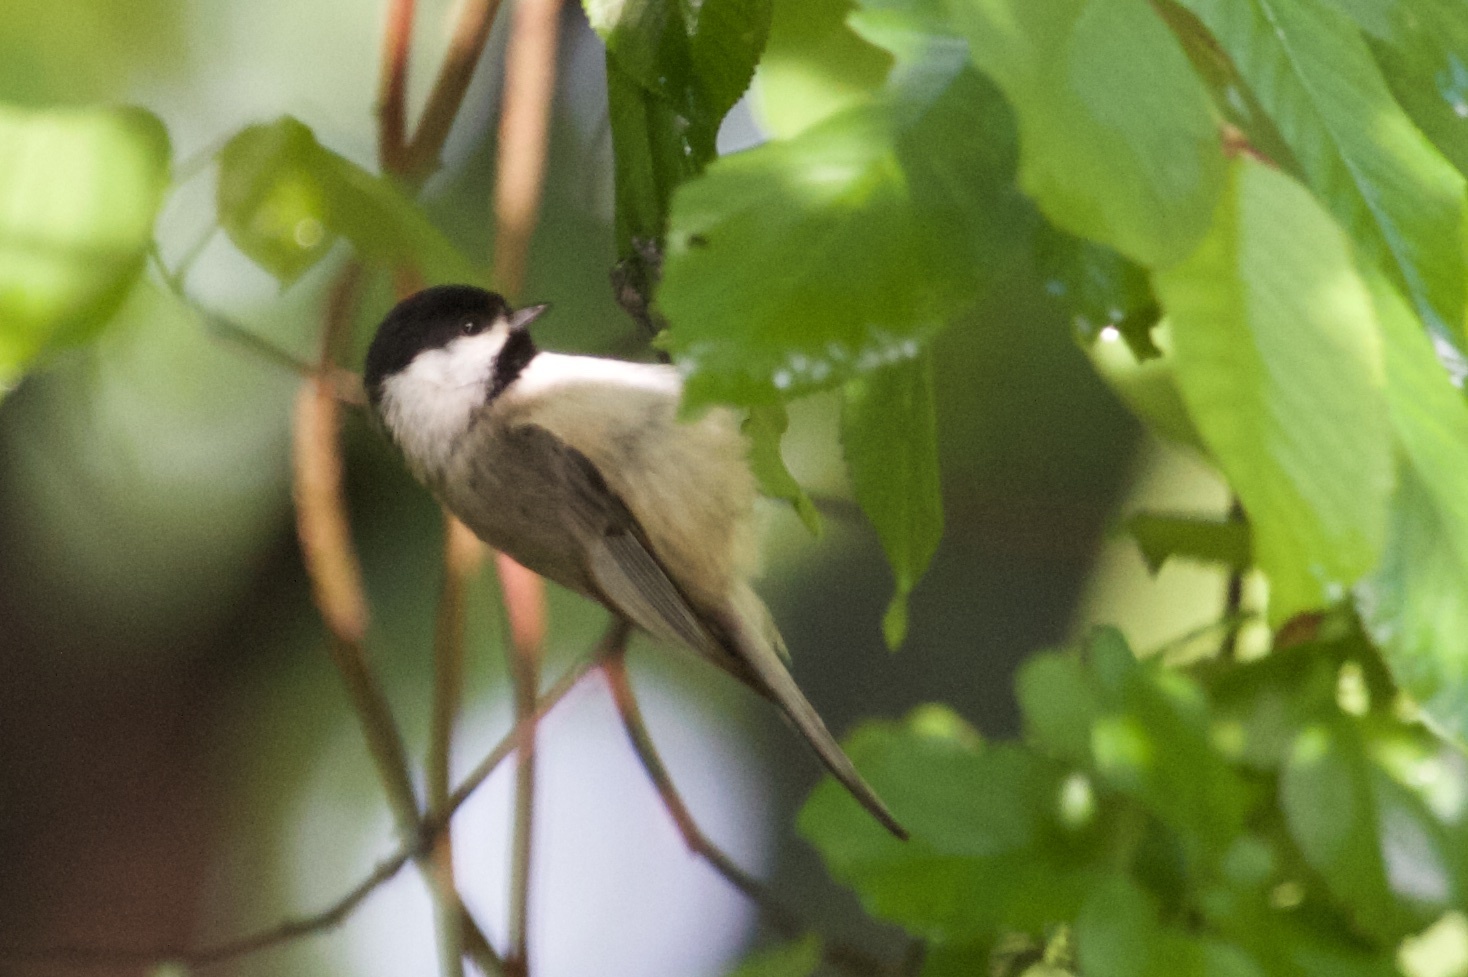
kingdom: Animalia
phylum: Chordata
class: Aves
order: Passeriformes
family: Paridae
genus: Poecile
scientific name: Poecile carolinensis
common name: Carolina chickadee
